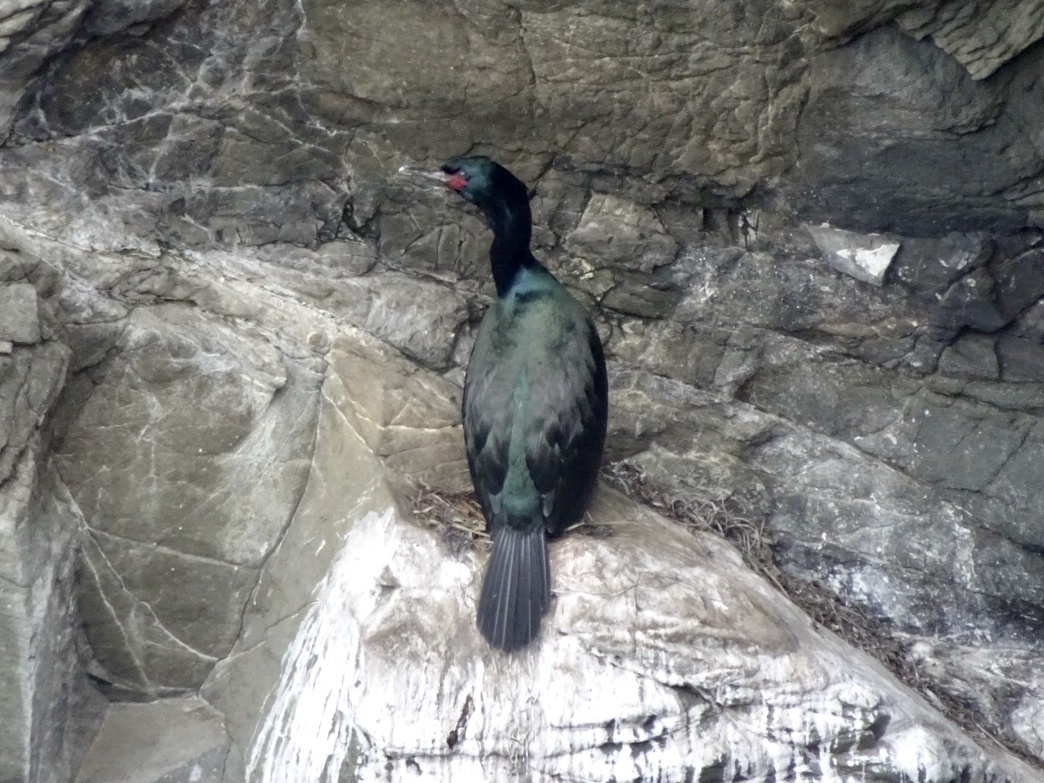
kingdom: Animalia
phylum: Chordata
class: Aves
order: Suliformes
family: Phalacrocoracidae
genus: Phalacrocorax
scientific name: Phalacrocorax pelagicus
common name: Pelagic cormorant
